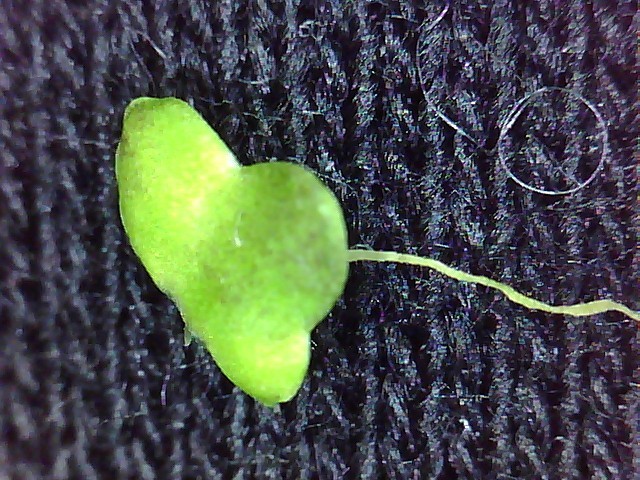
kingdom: Plantae
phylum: Tracheophyta
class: Liliopsida
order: Alismatales
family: Araceae
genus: Lemna
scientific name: Lemna disperma
